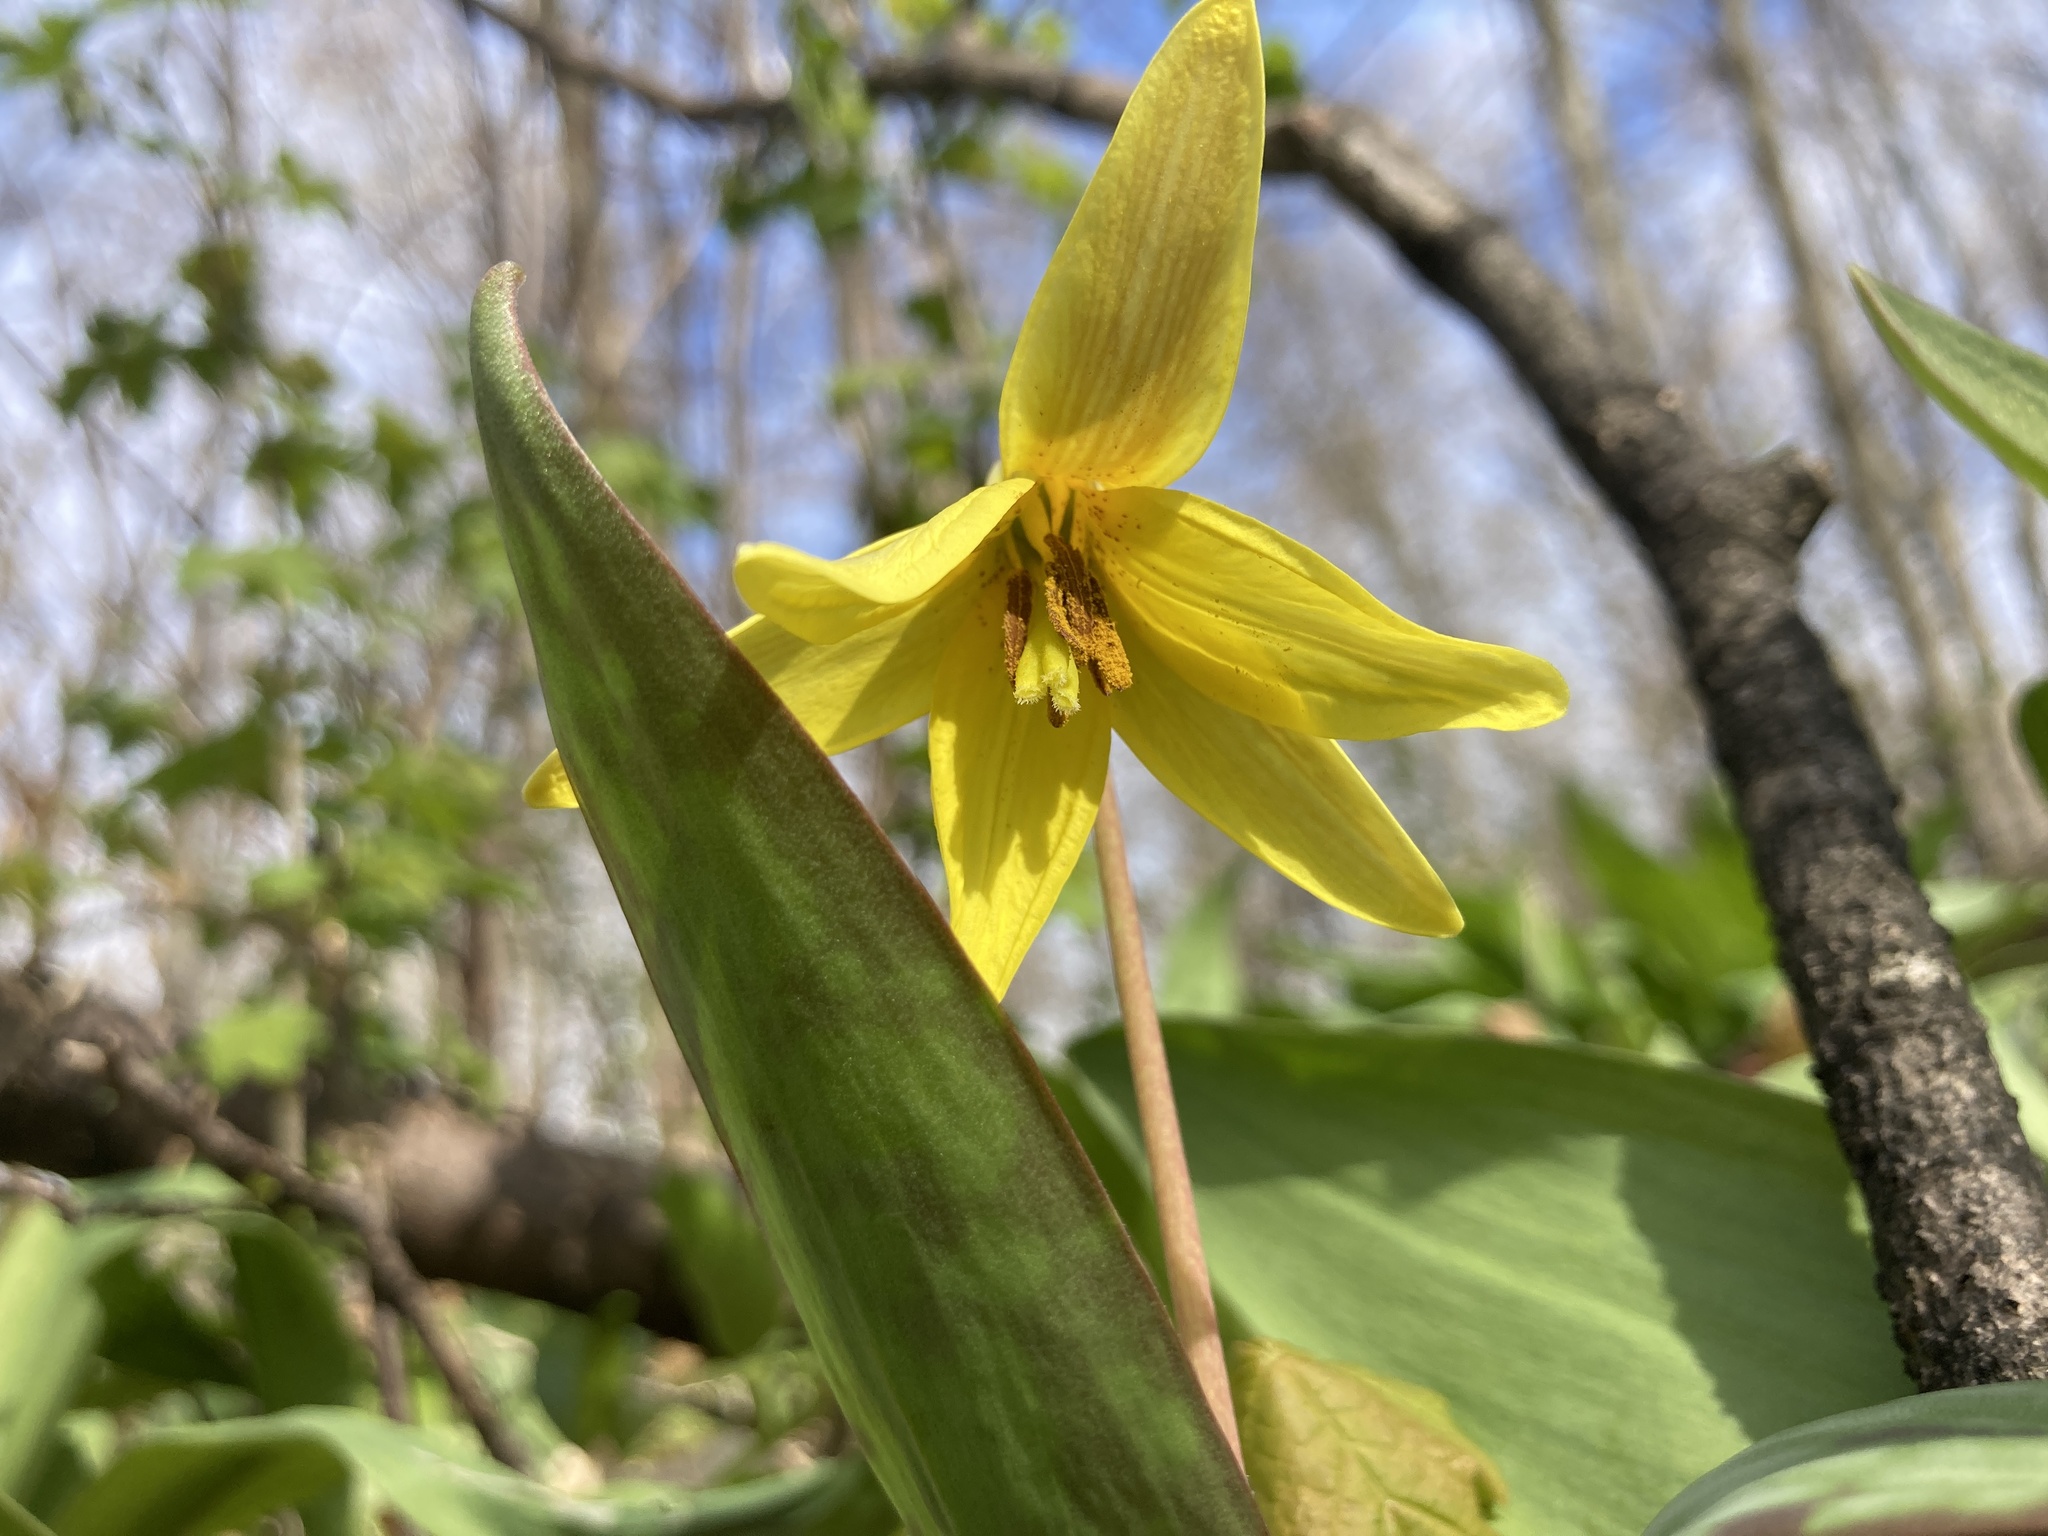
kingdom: Plantae
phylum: Tracheophyta
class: Liliopsida
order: Liliales
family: Liliaceae
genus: Erythronium
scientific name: Erythronium americanum
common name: Yellow adder's-tongue
